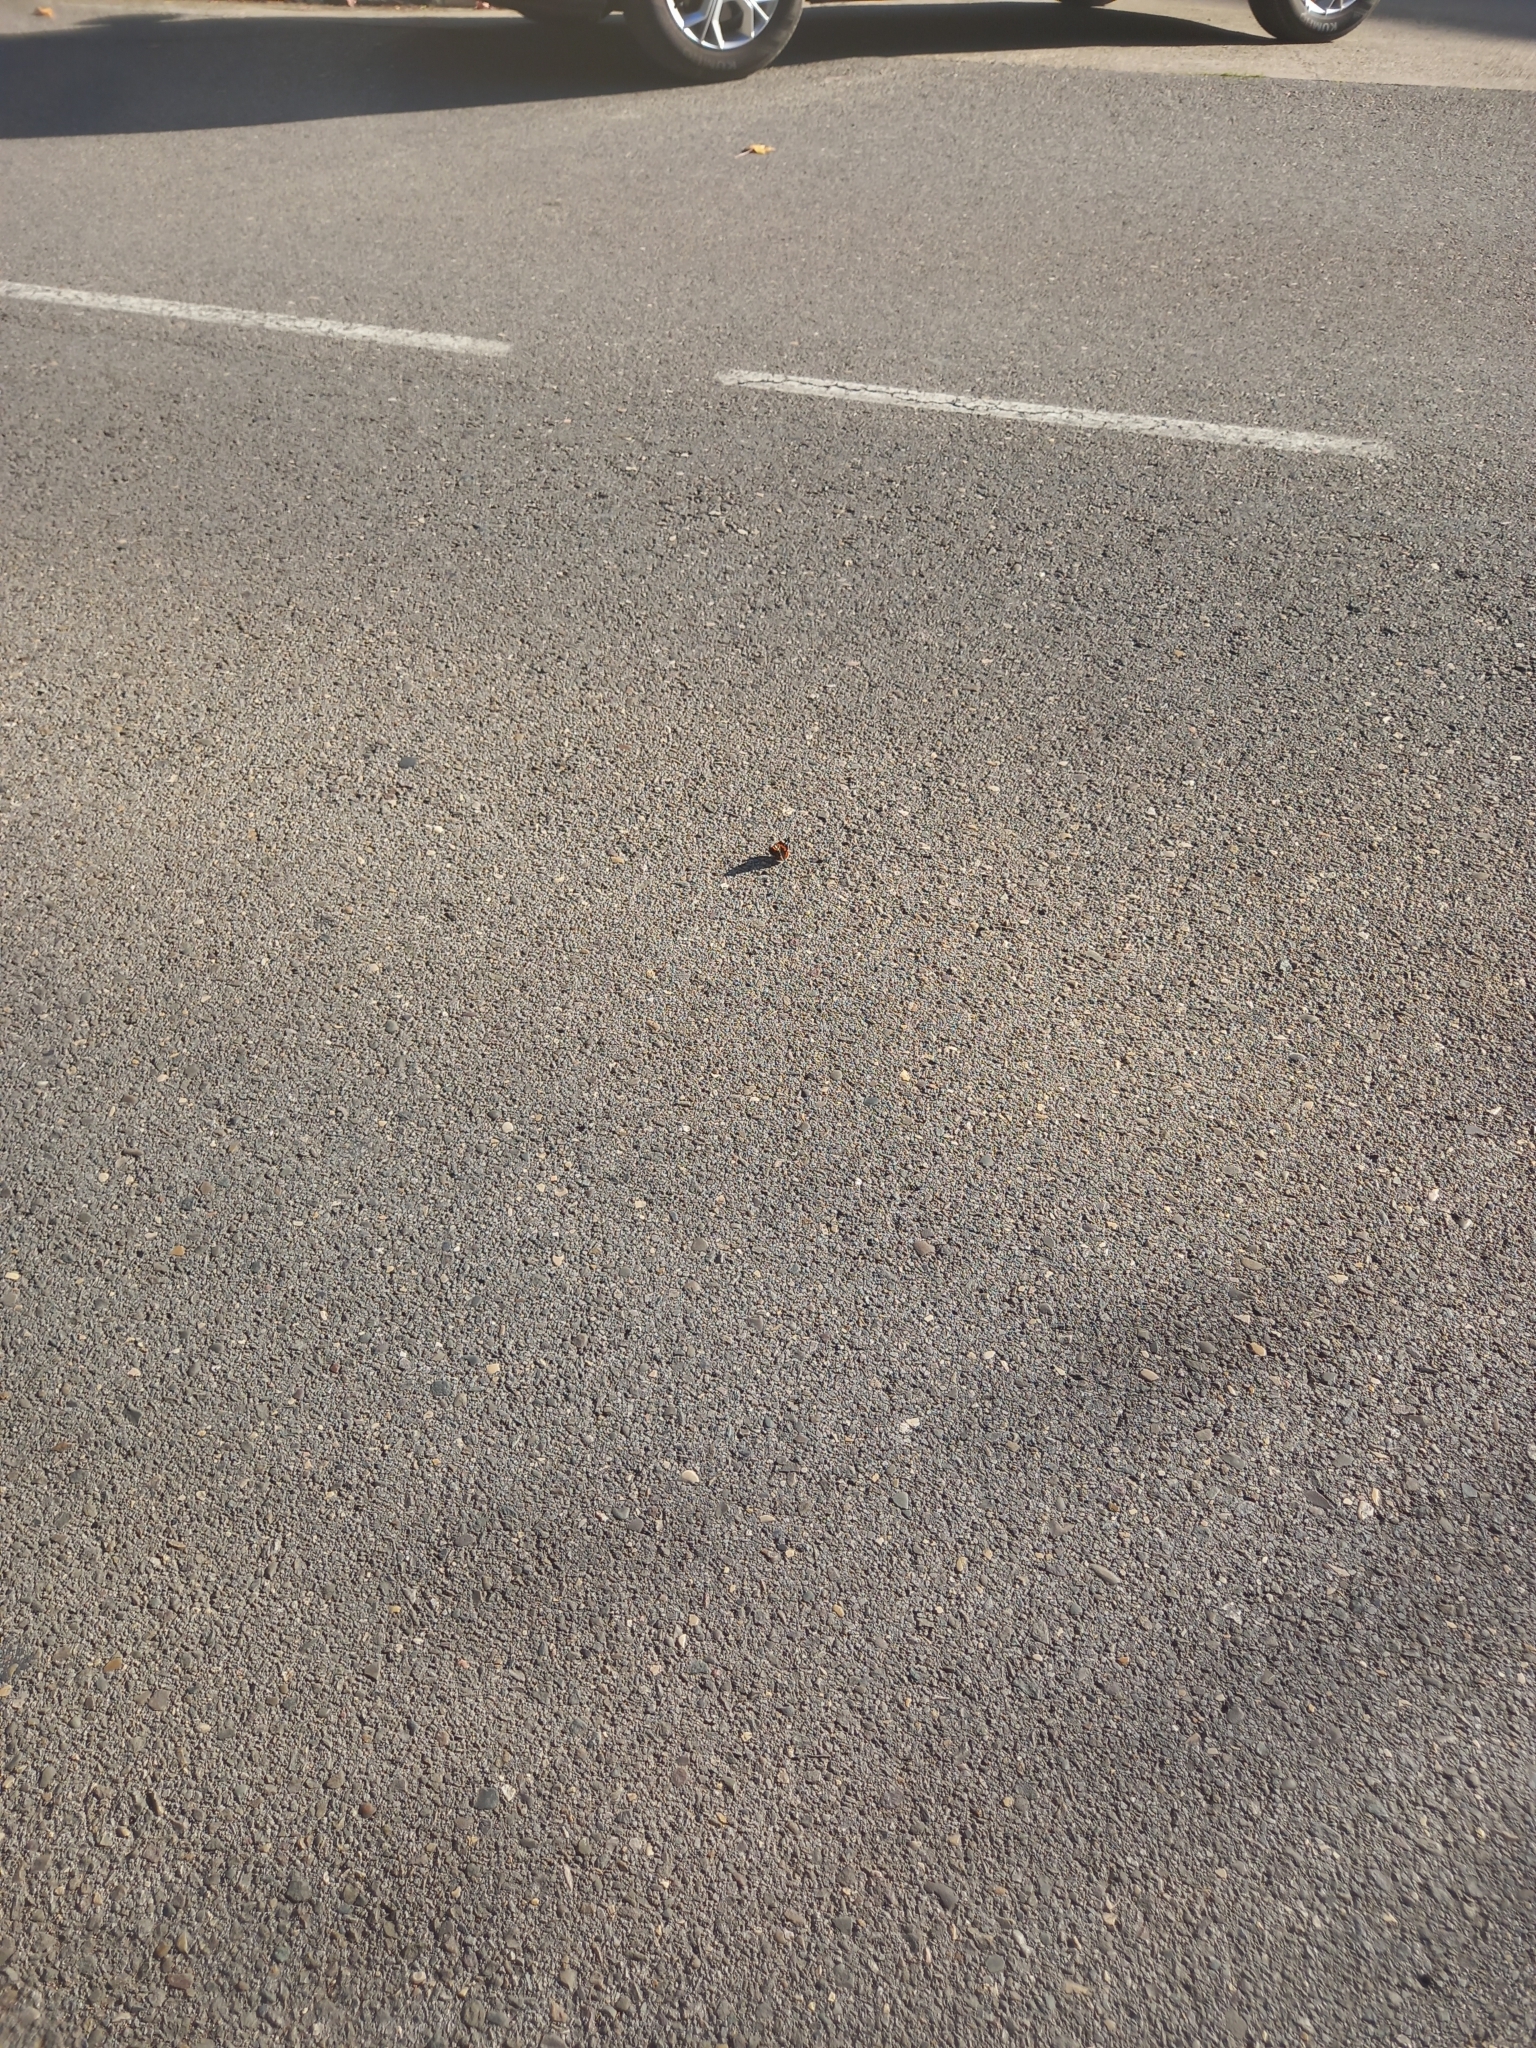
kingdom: Animalia
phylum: Arthropoda
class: Insecta
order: Lepidoptera
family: Nymphalidae
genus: Vanessa
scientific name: Vanessa atalanta
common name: Red admiral
